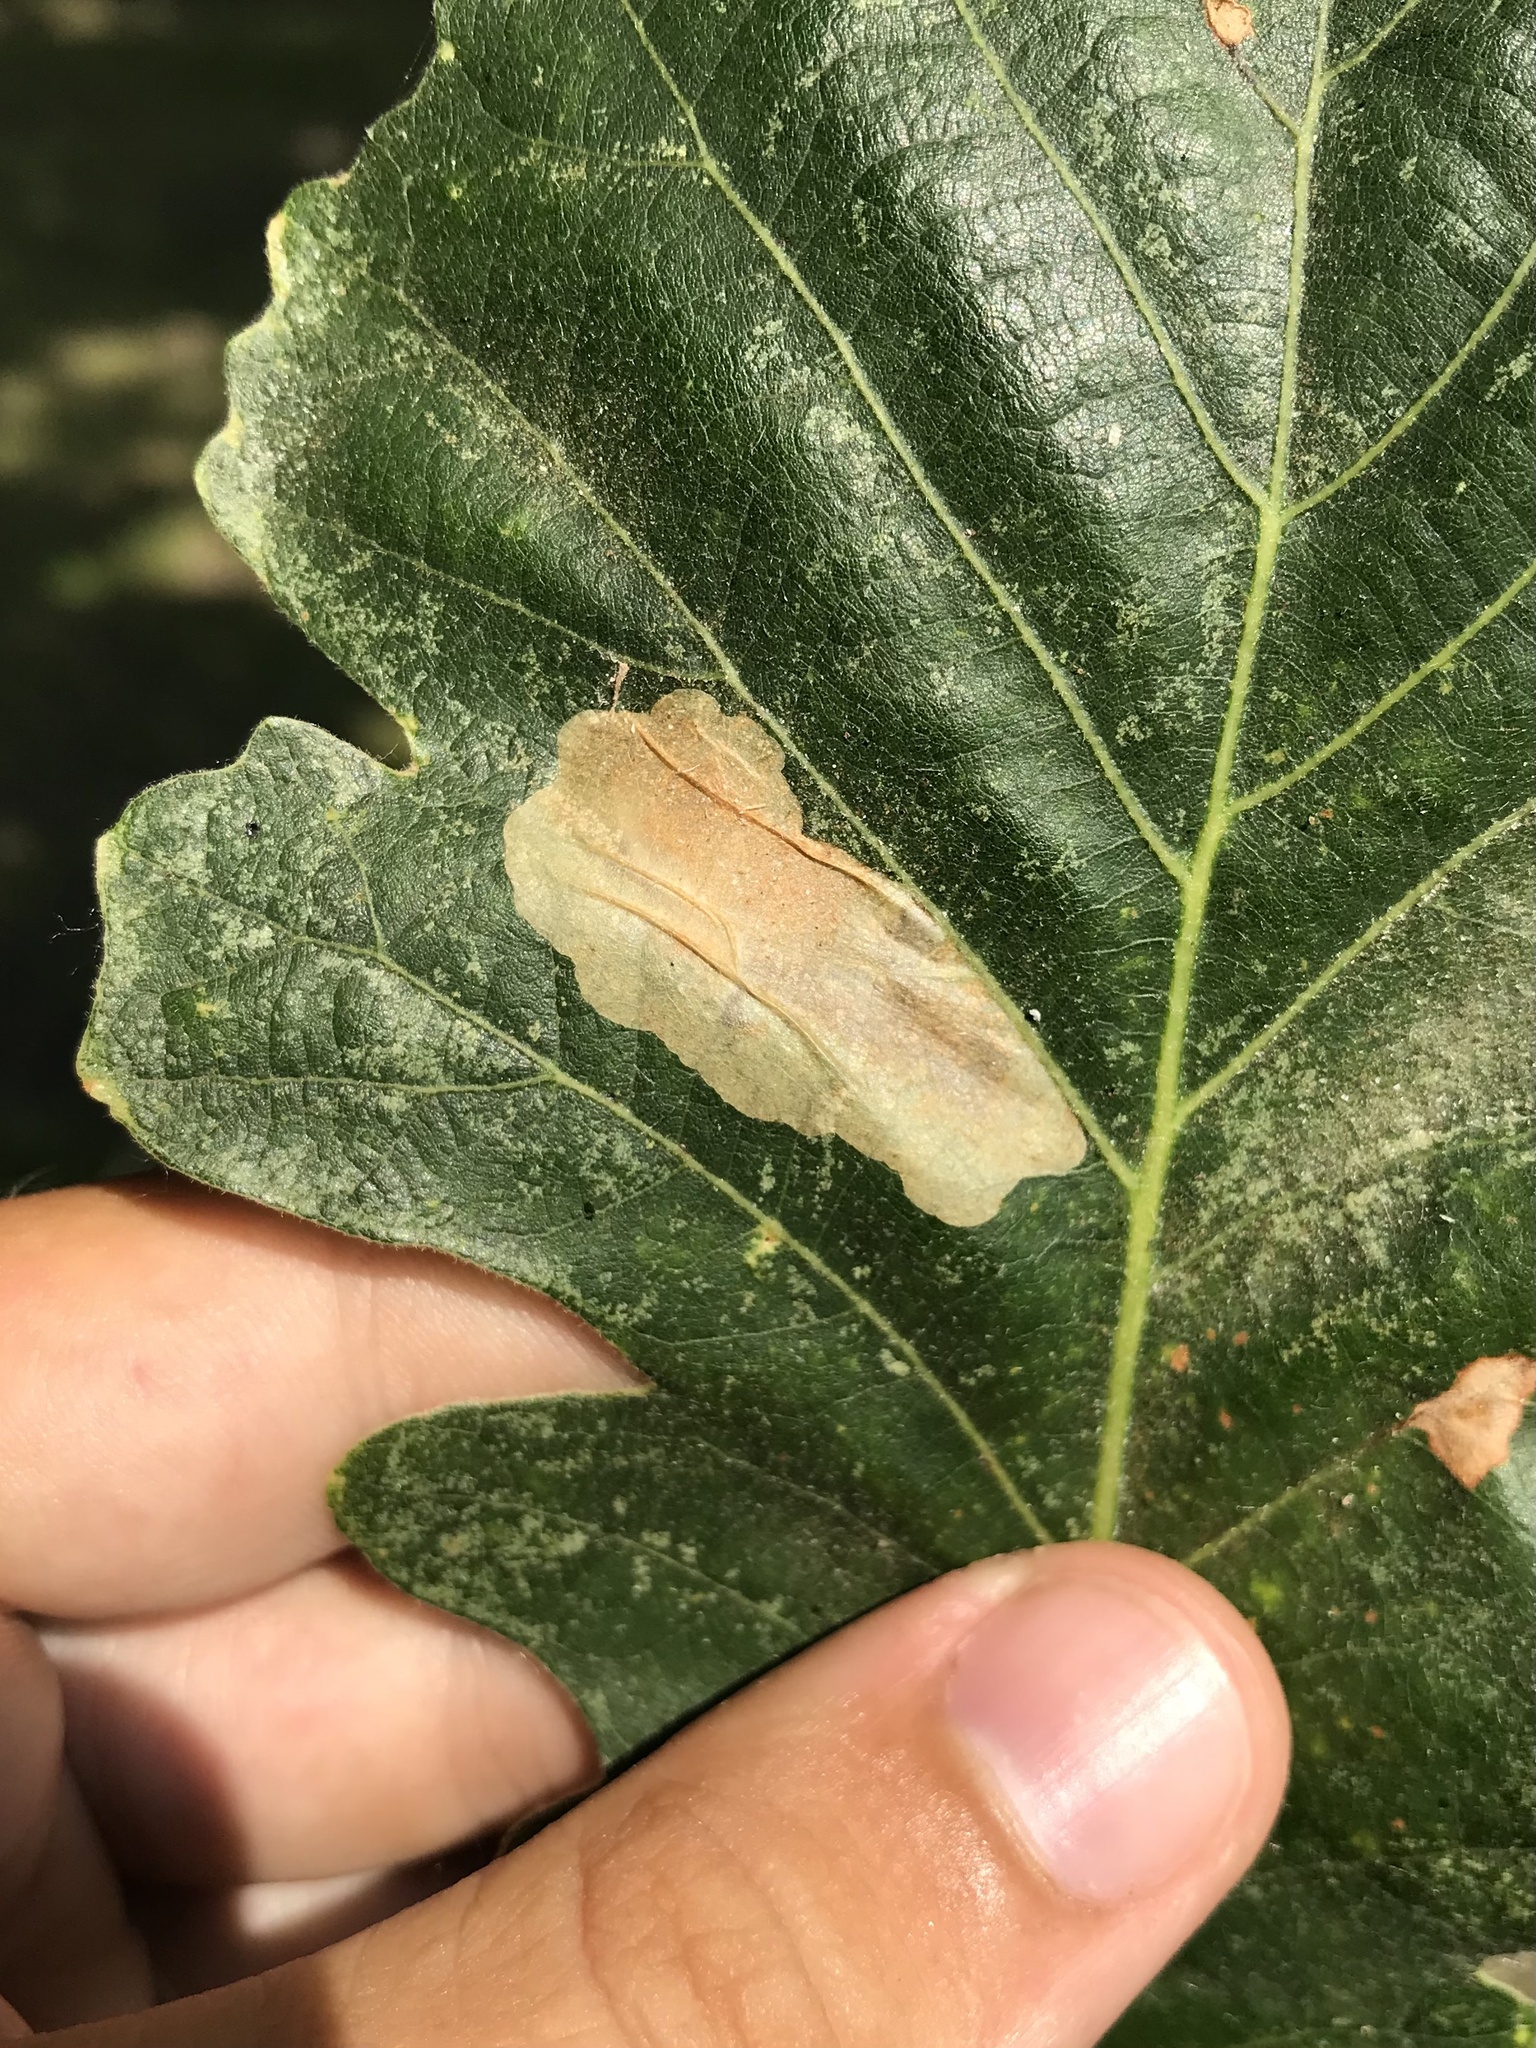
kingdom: Animalia
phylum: Arthropoda
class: Insecta
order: Lepidoptera
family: Gracillariidae
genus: Cameraria
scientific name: Cameraria macrocarpella
